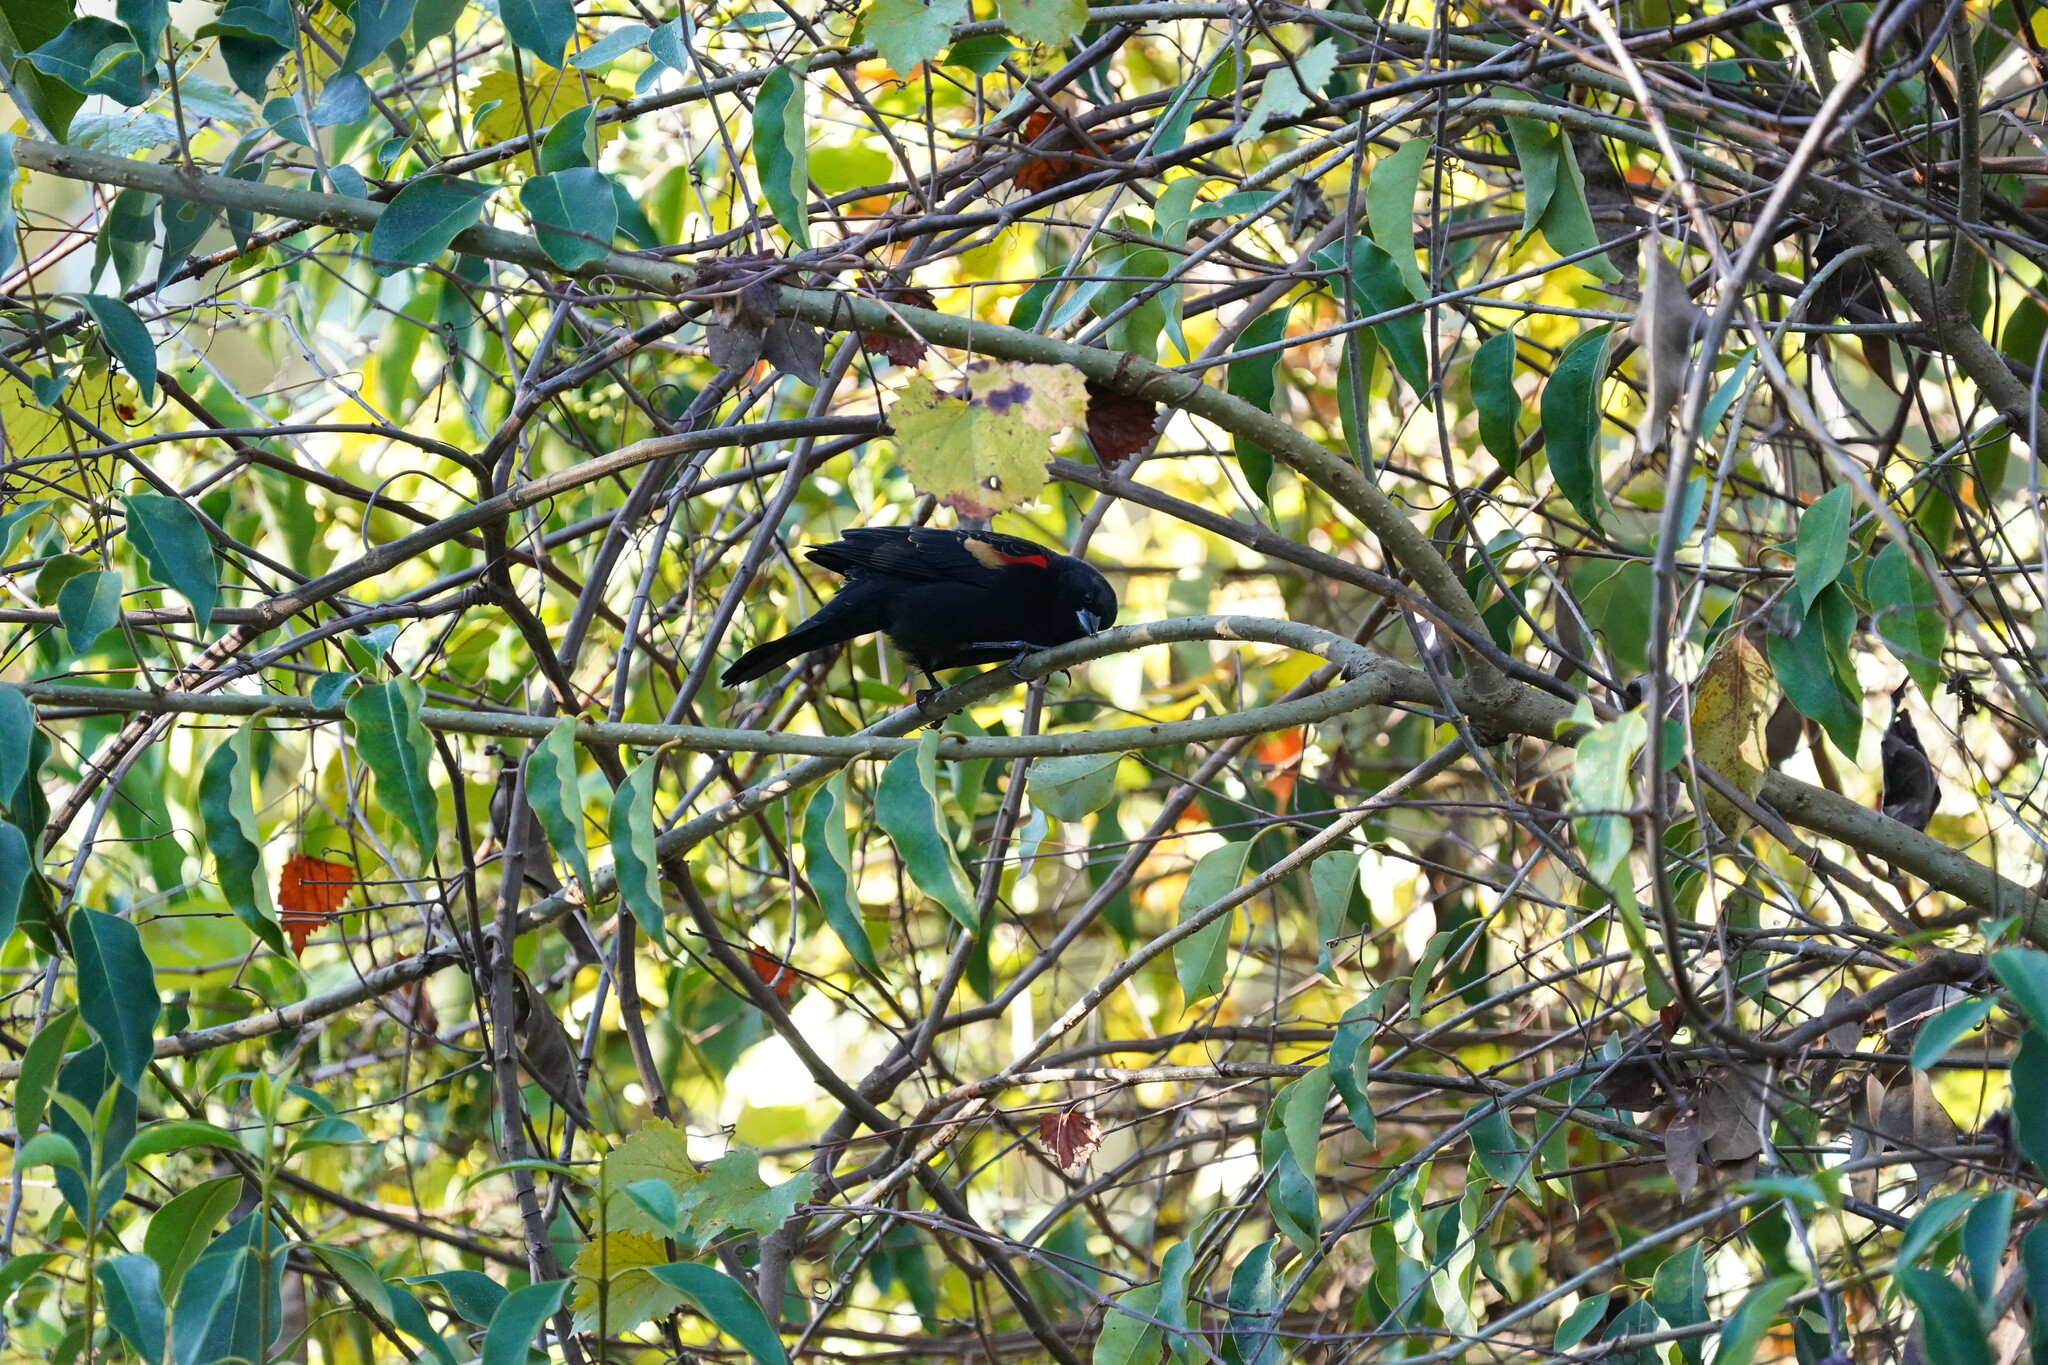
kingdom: Animalia
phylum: Chordata
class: Aves
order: Passeriformes
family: Icteridae
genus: Agelaius
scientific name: Agelaius phoeniceus
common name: Red-winged blackbird
